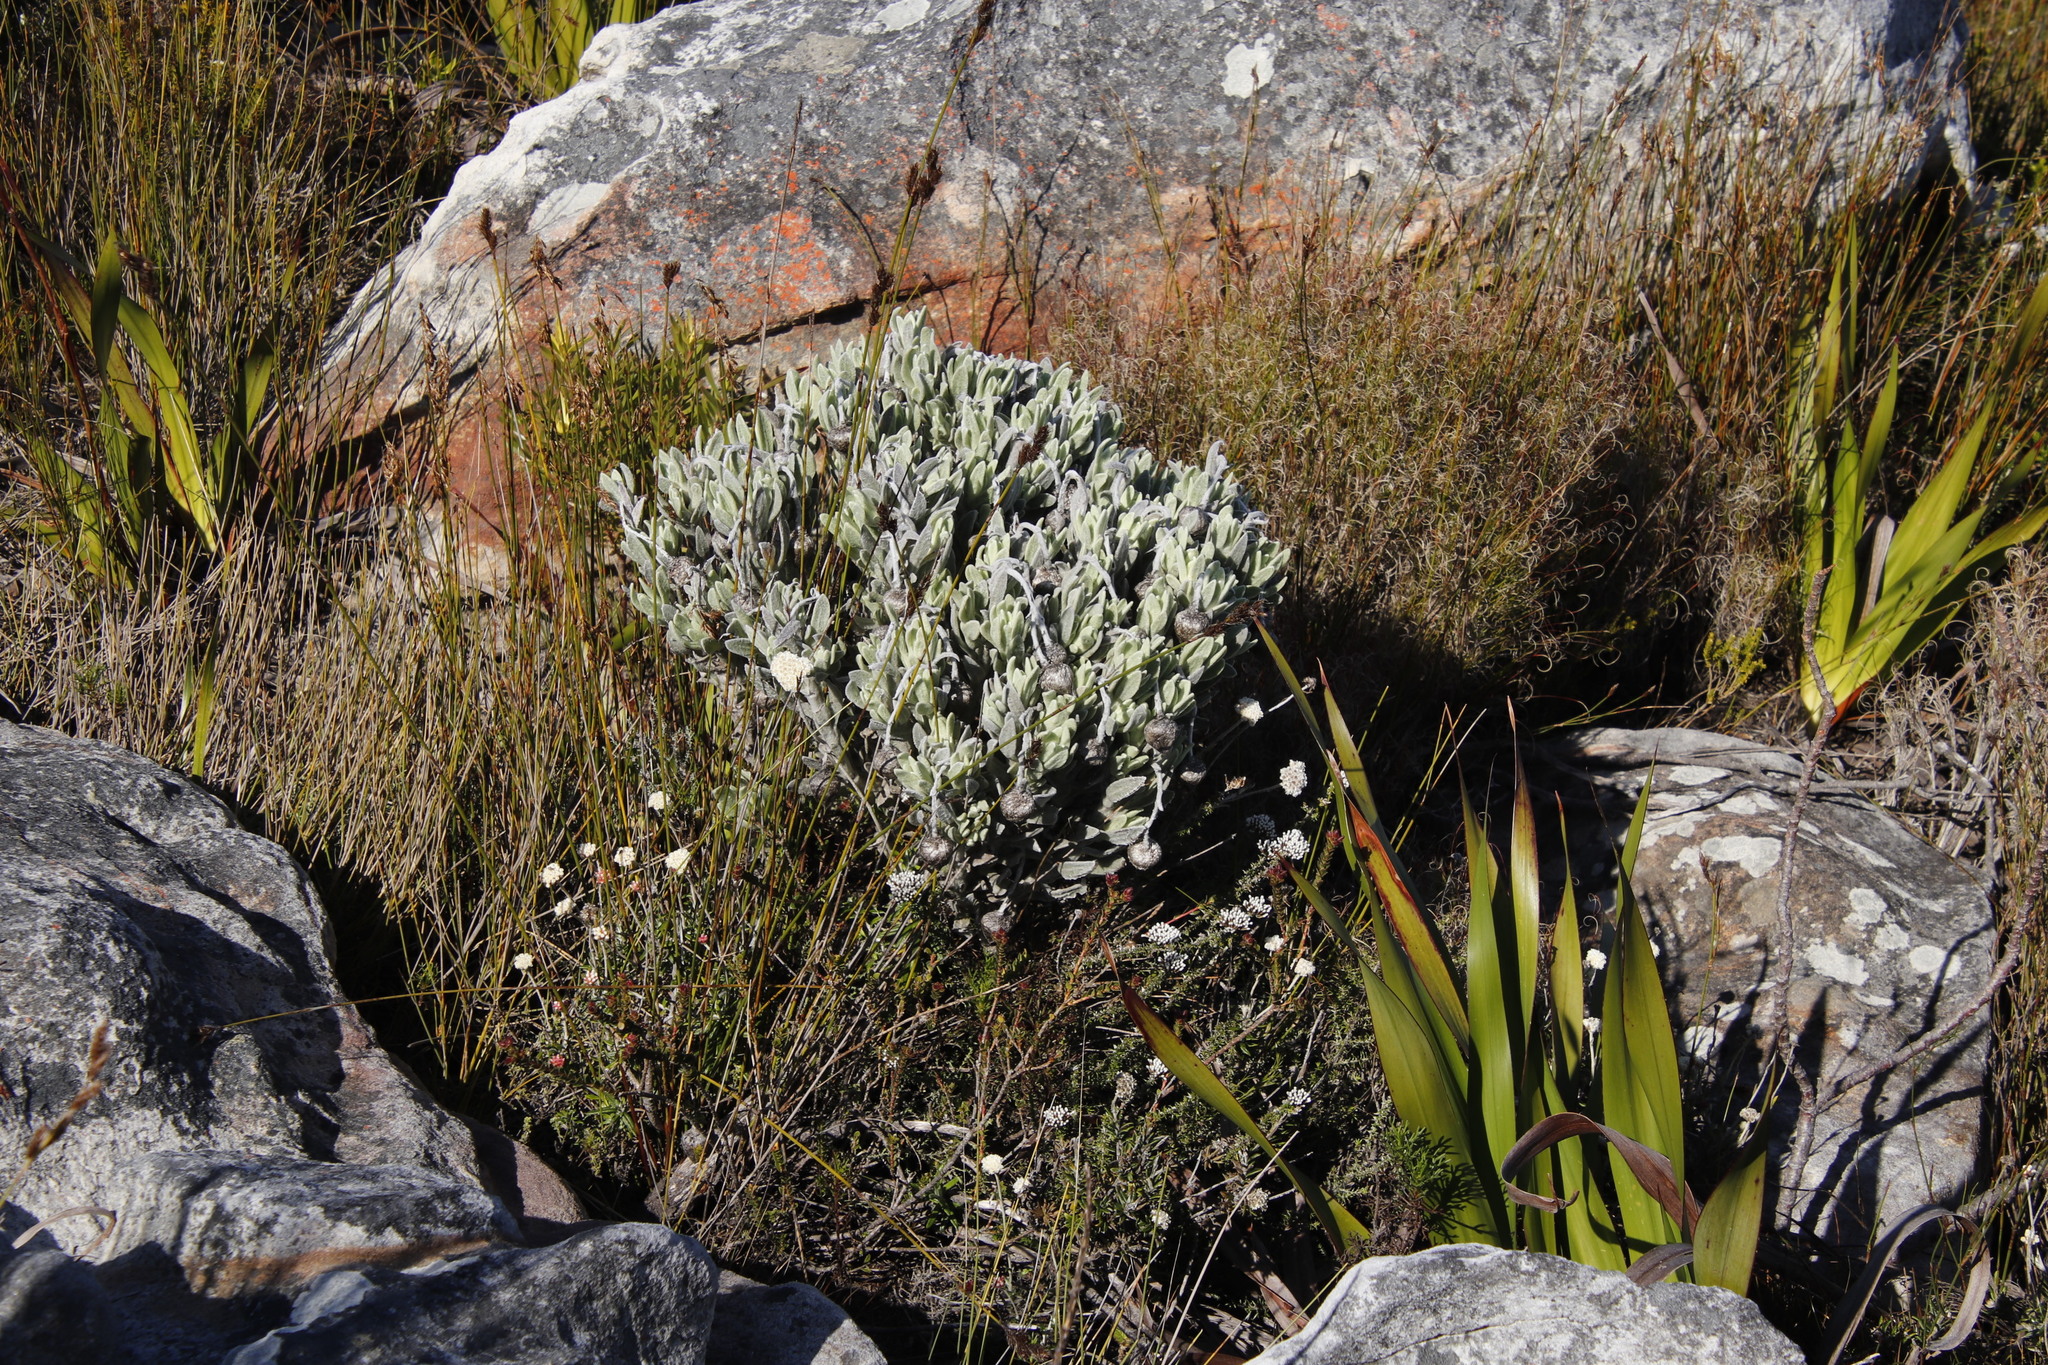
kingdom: Plantae
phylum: Tracheophyta
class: Magnoliopsida
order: Asterales
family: Asteraceae
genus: Syncarpha
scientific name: Syncarpha vestita
